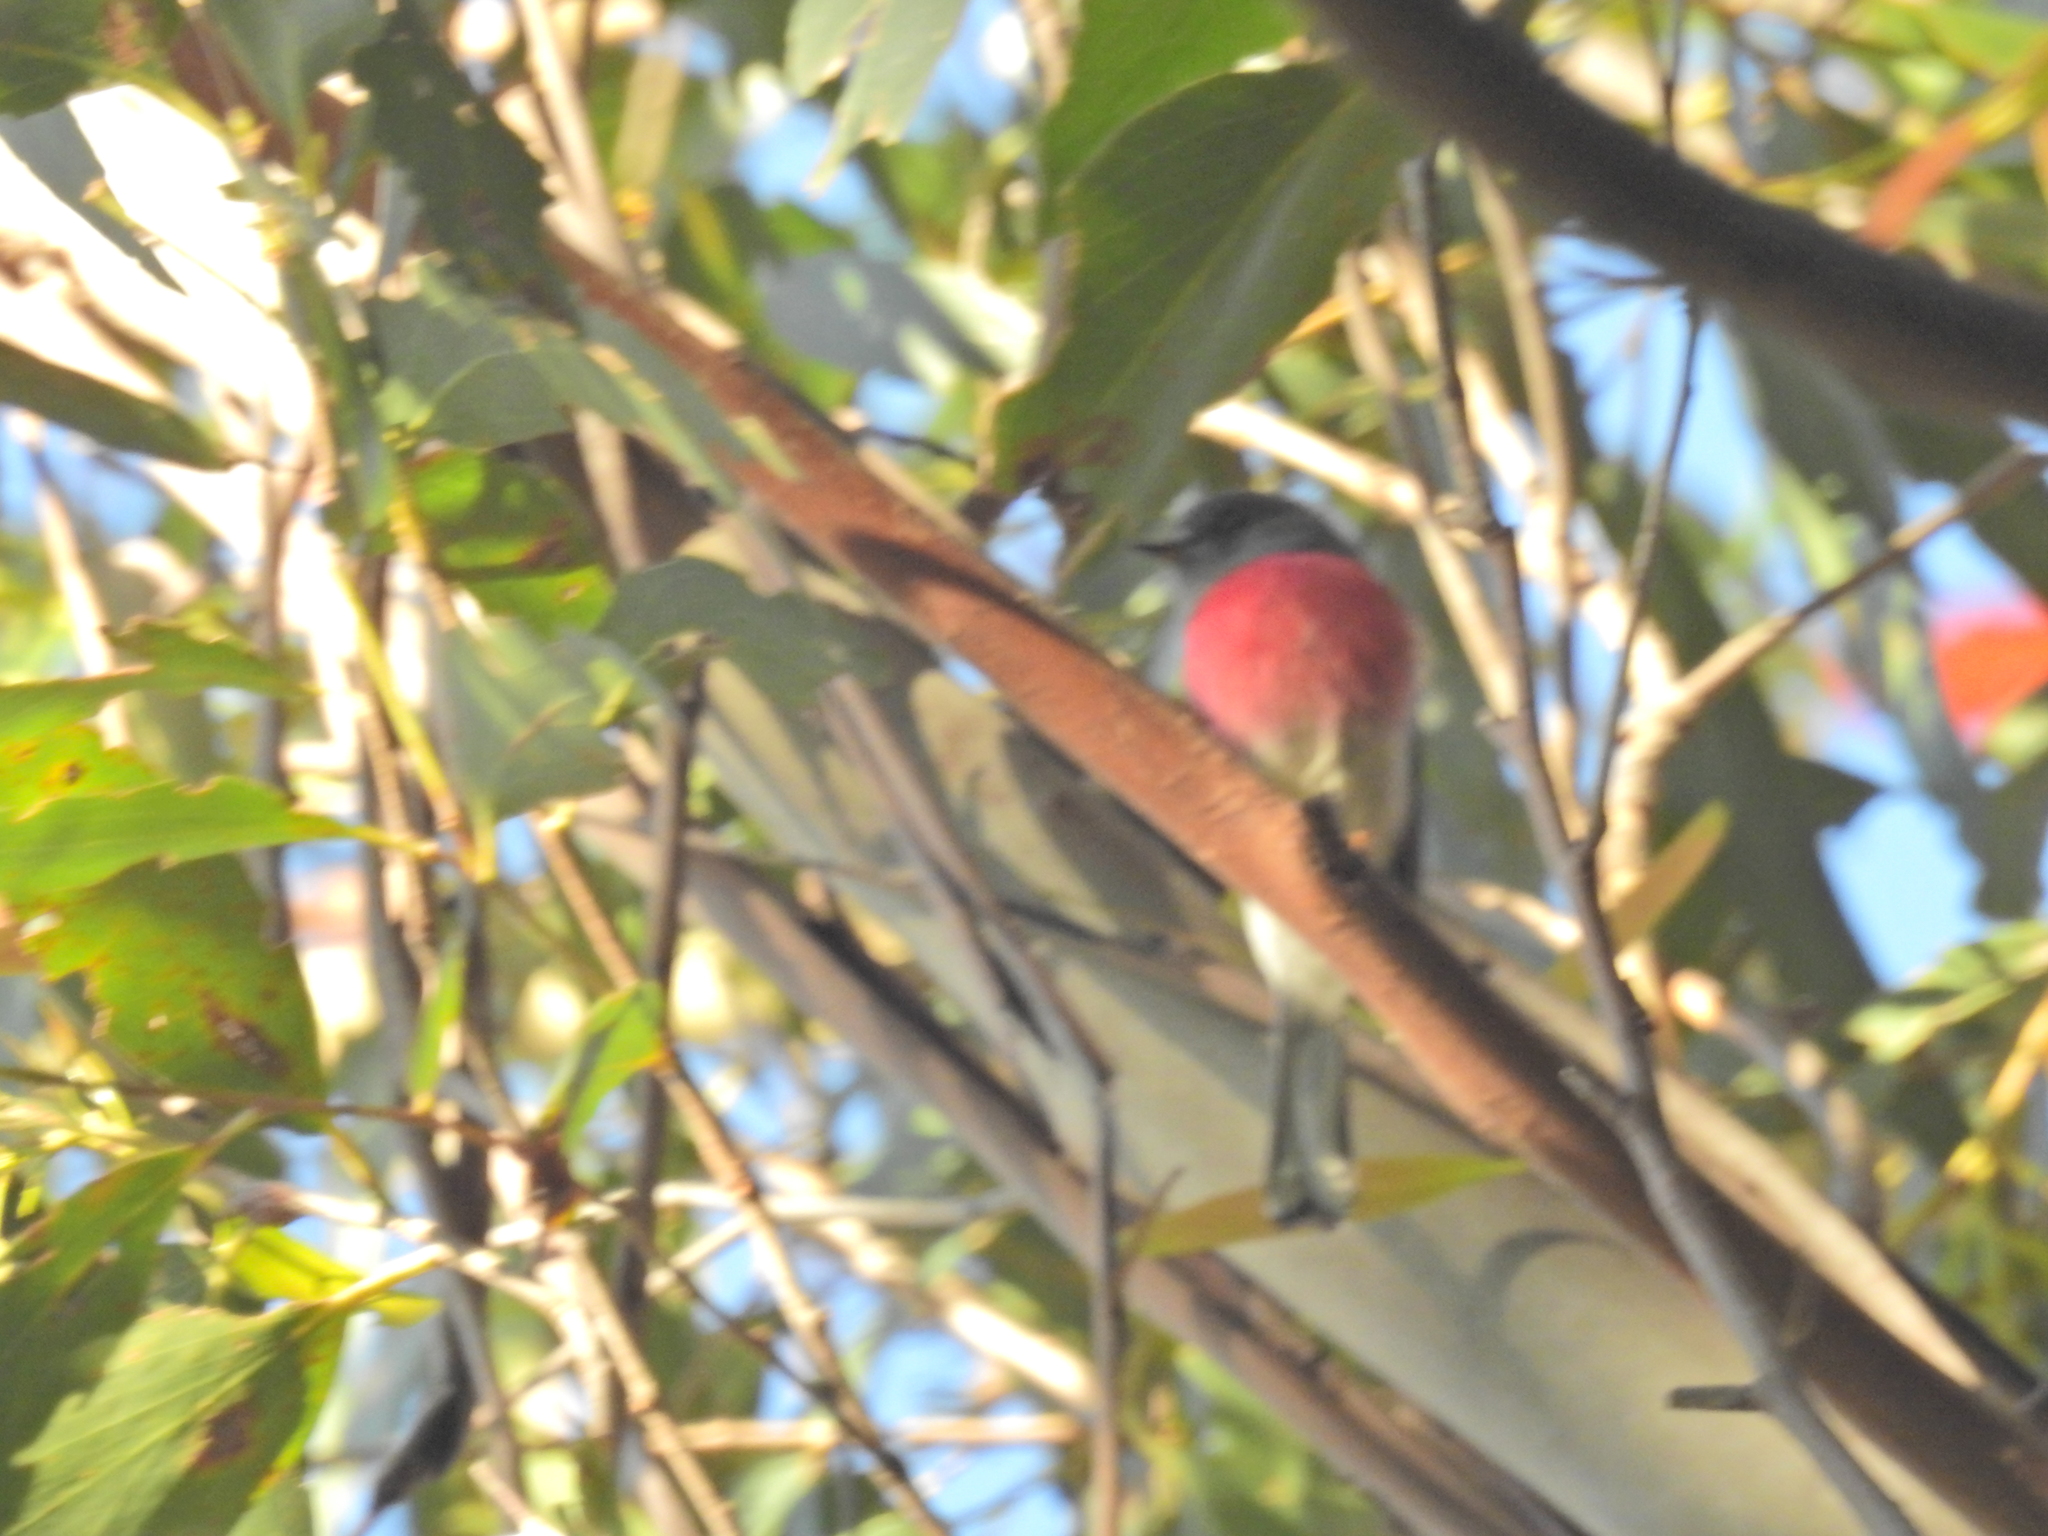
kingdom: Animalia
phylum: Chordata
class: Aves
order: Passeriformes
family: Petroicidae
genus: Petroica
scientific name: Petroica rosea
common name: Rose robin
